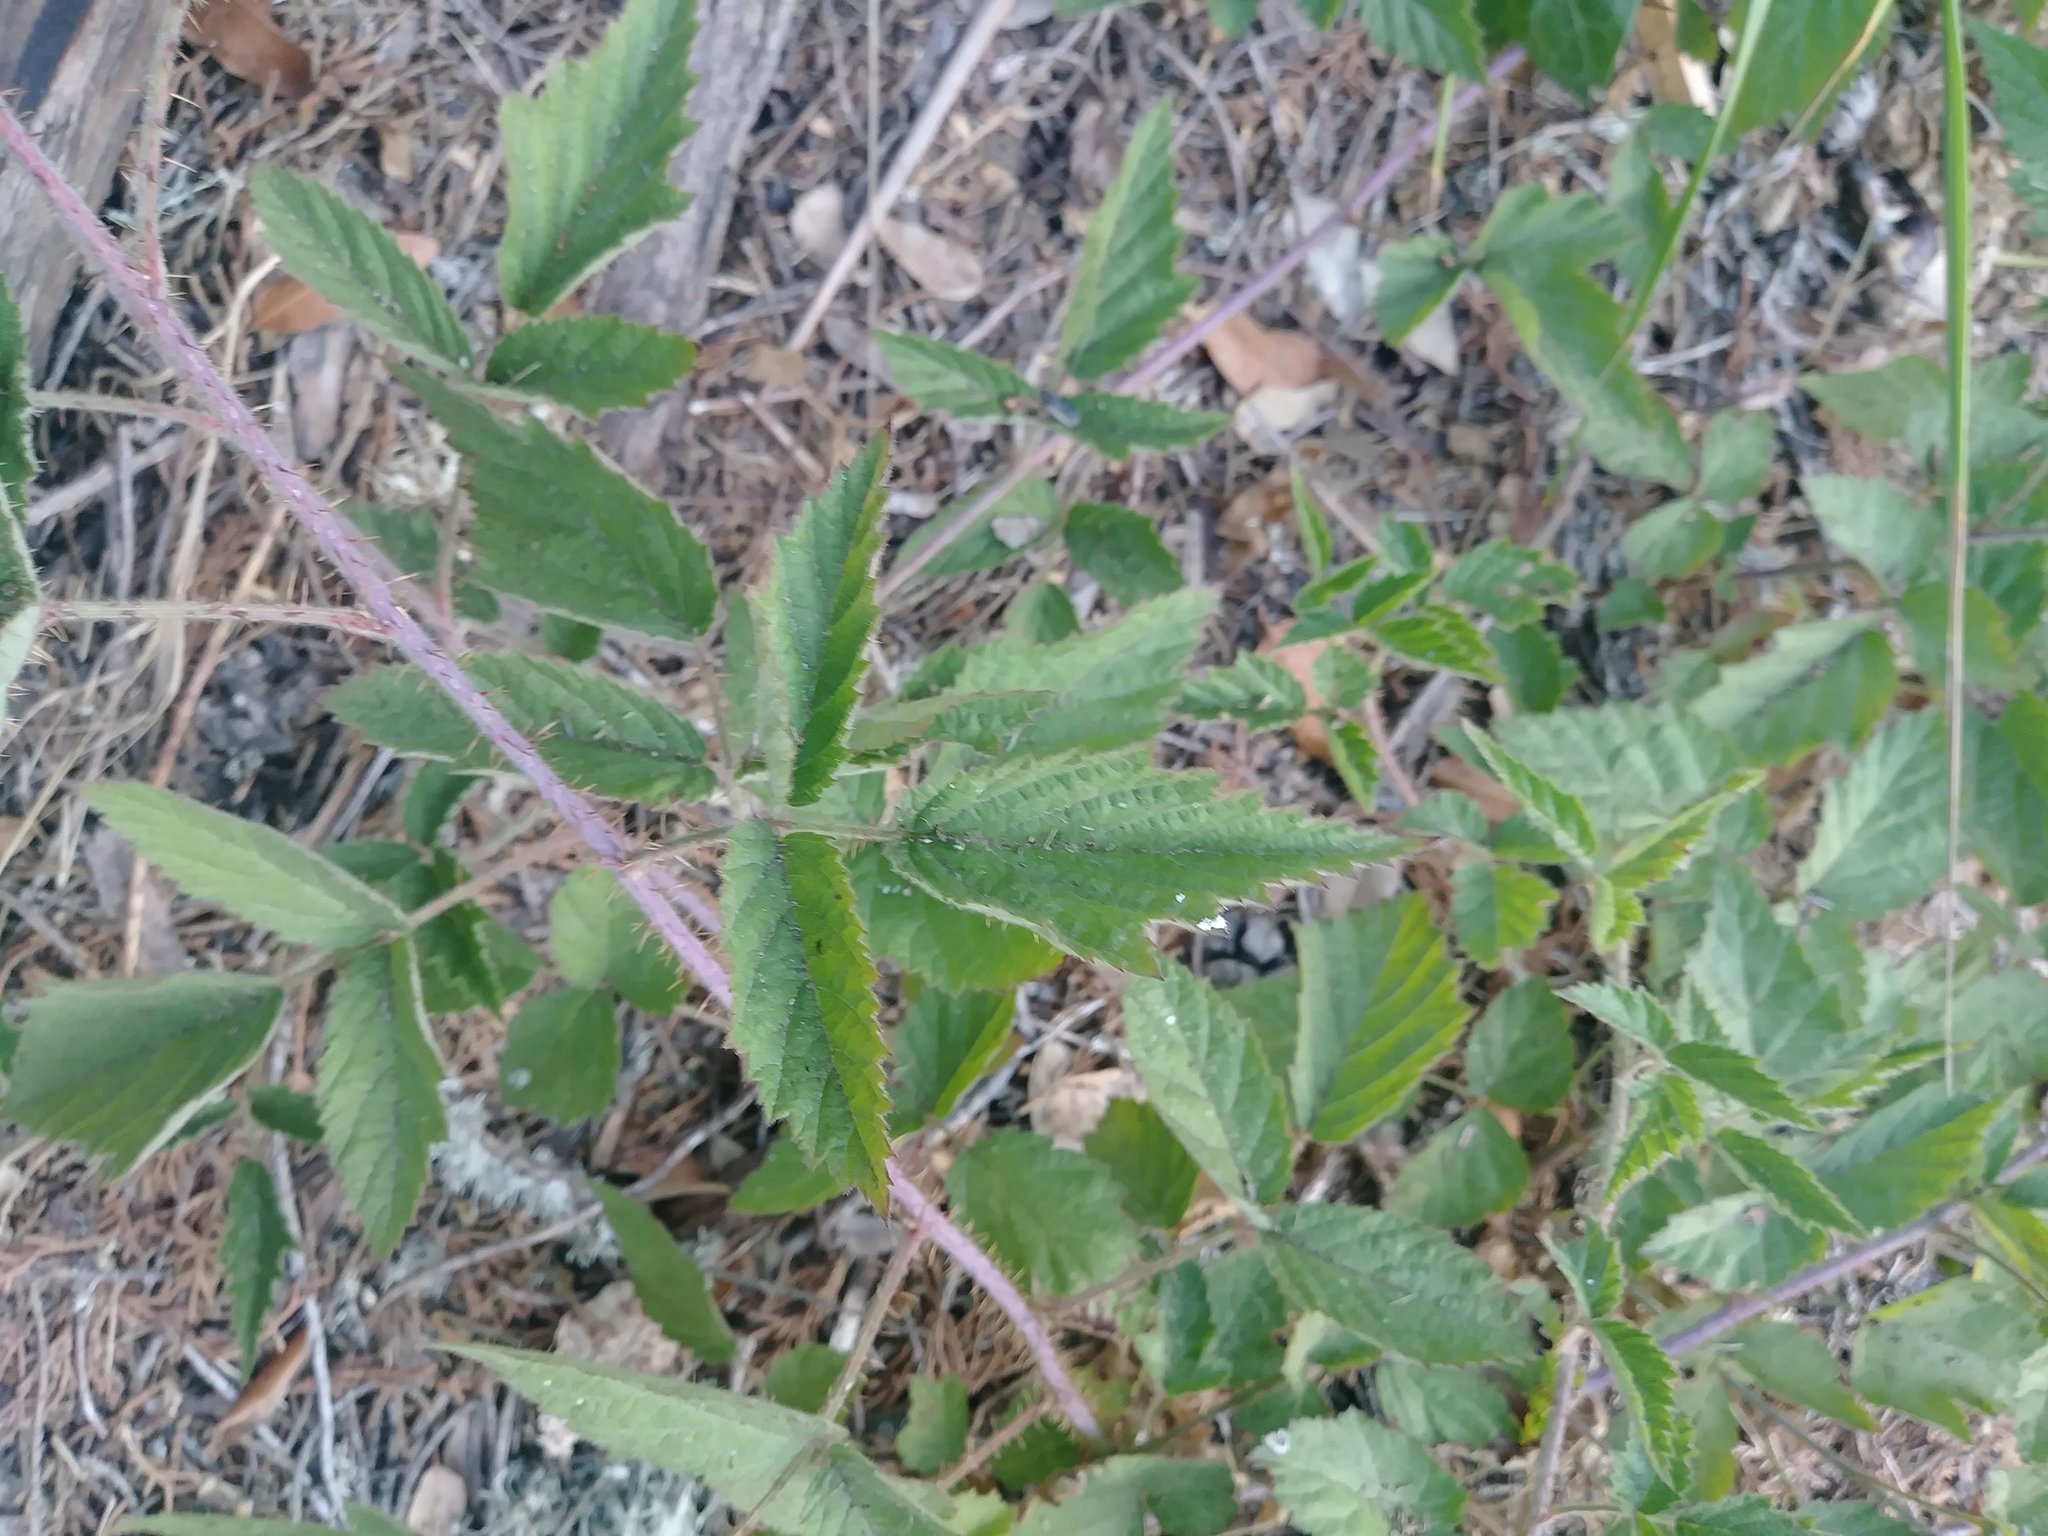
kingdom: Plantae
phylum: Tracheophyta
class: Magnoliopsida
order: Rosales
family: Rosaceae
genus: Rubus
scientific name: Rubus ursinus
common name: Pacific blackberry
